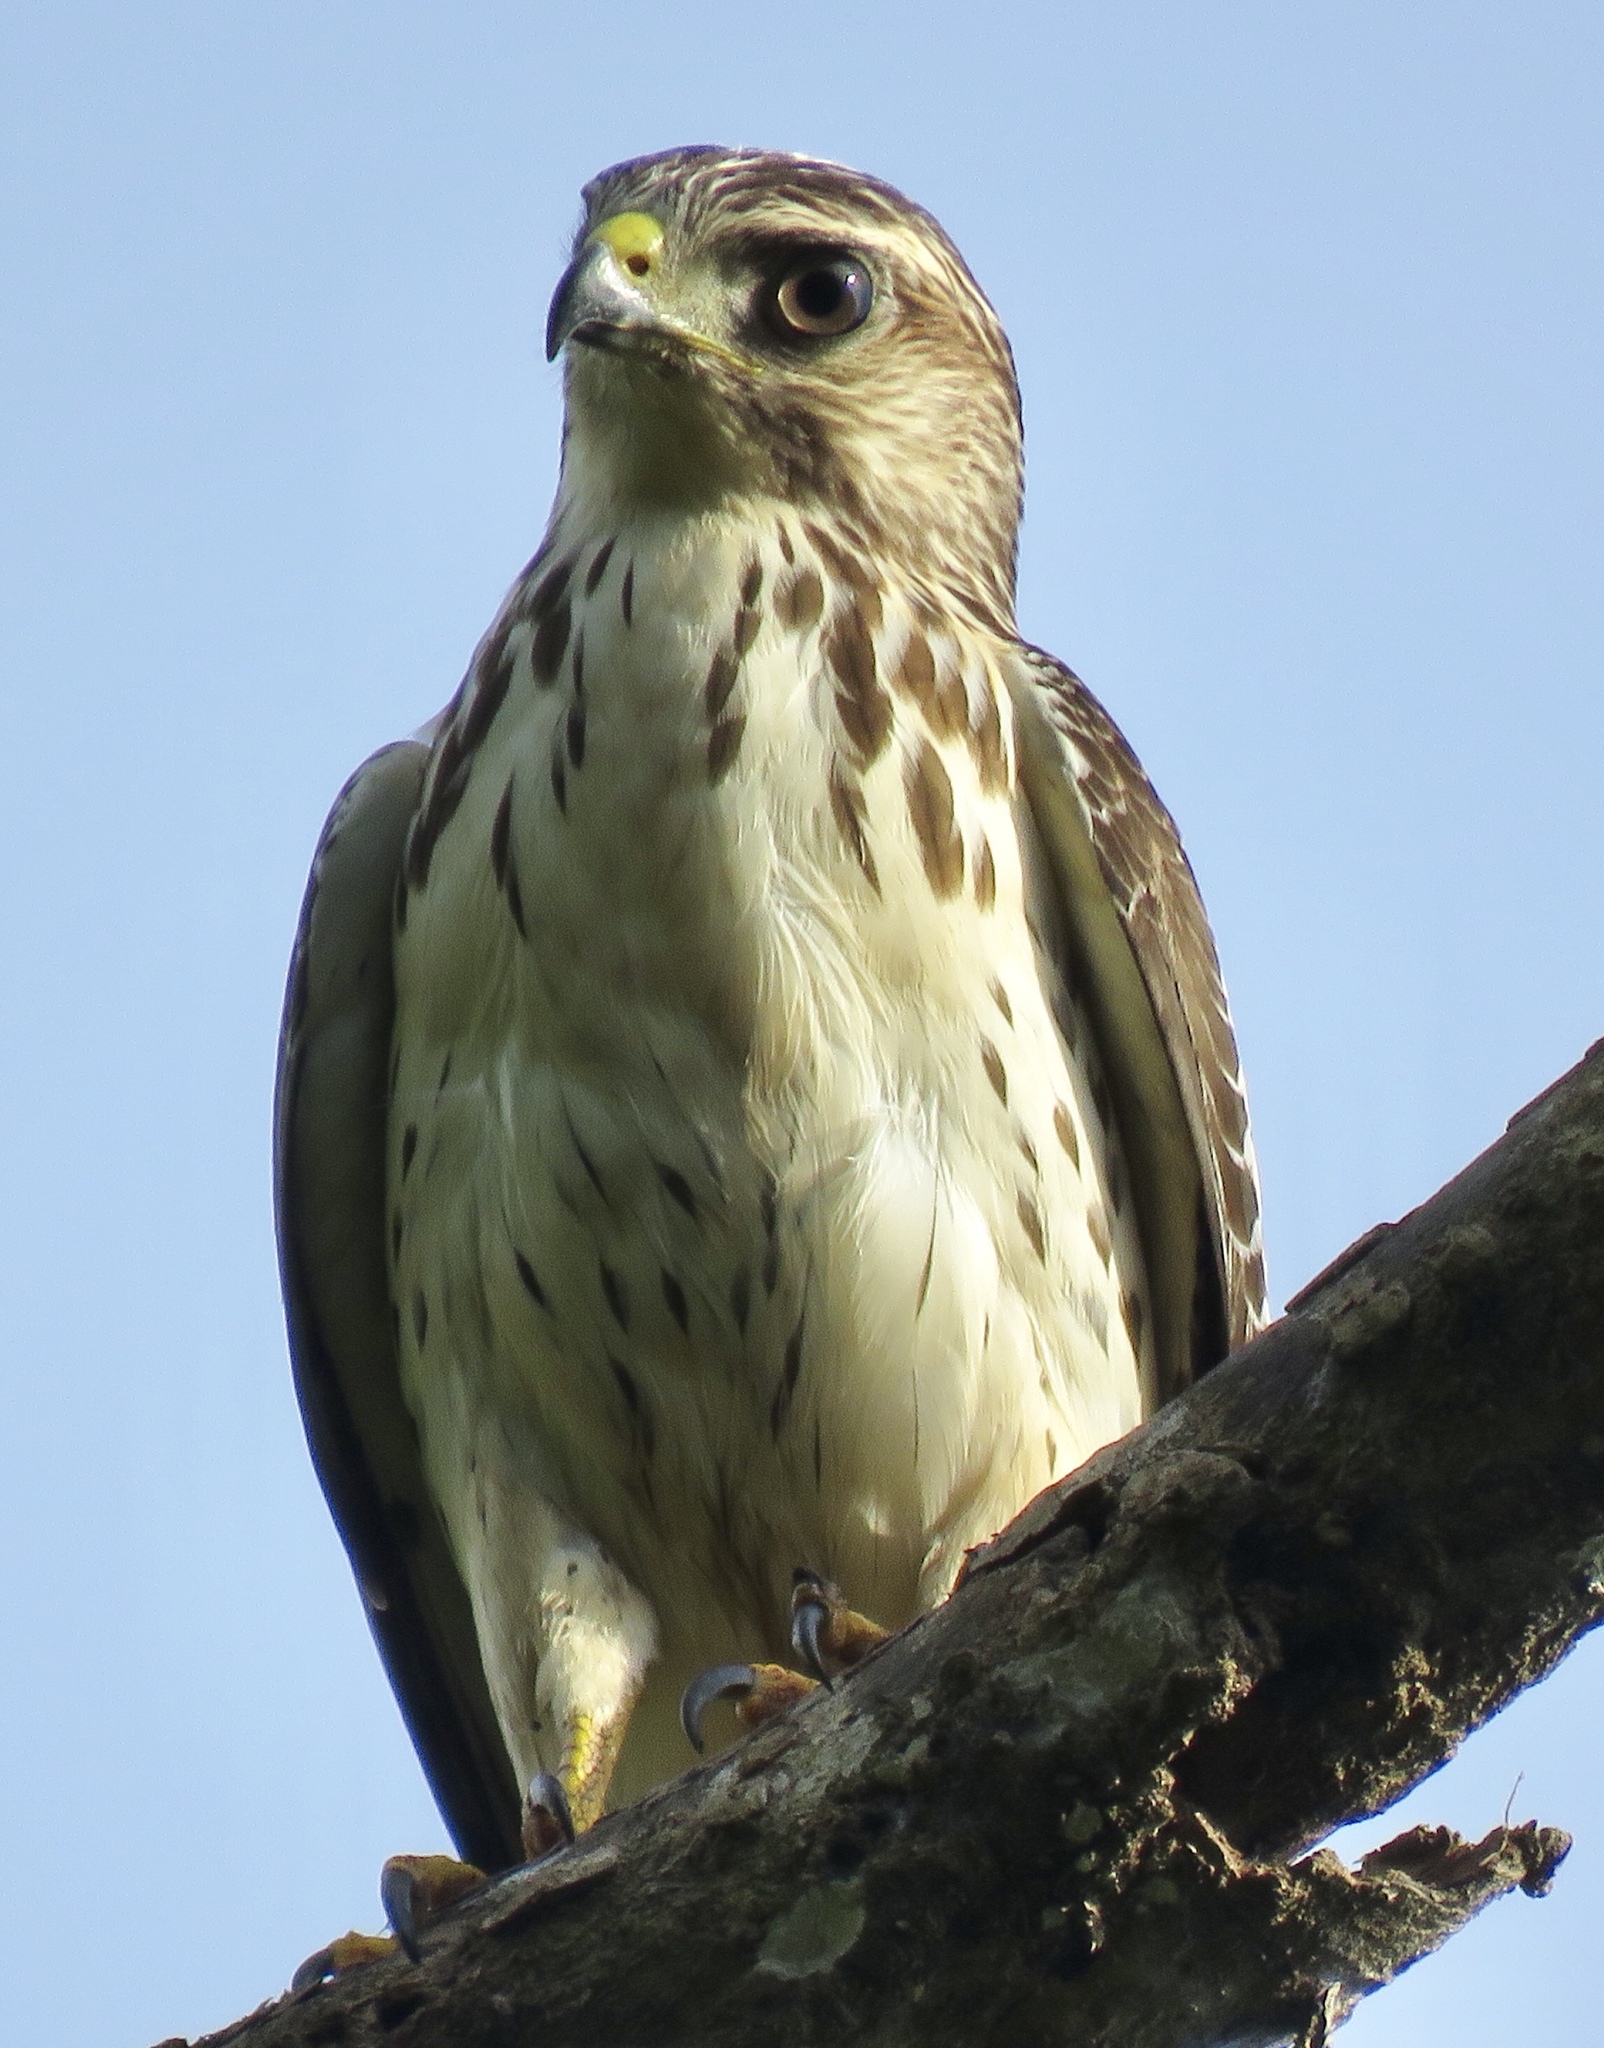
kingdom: Animalia
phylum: Chordata
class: Aves
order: Accipitriformes
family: Accipitridae
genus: Buteo
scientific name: Buteo platypterus
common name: Broad-winged hawk
